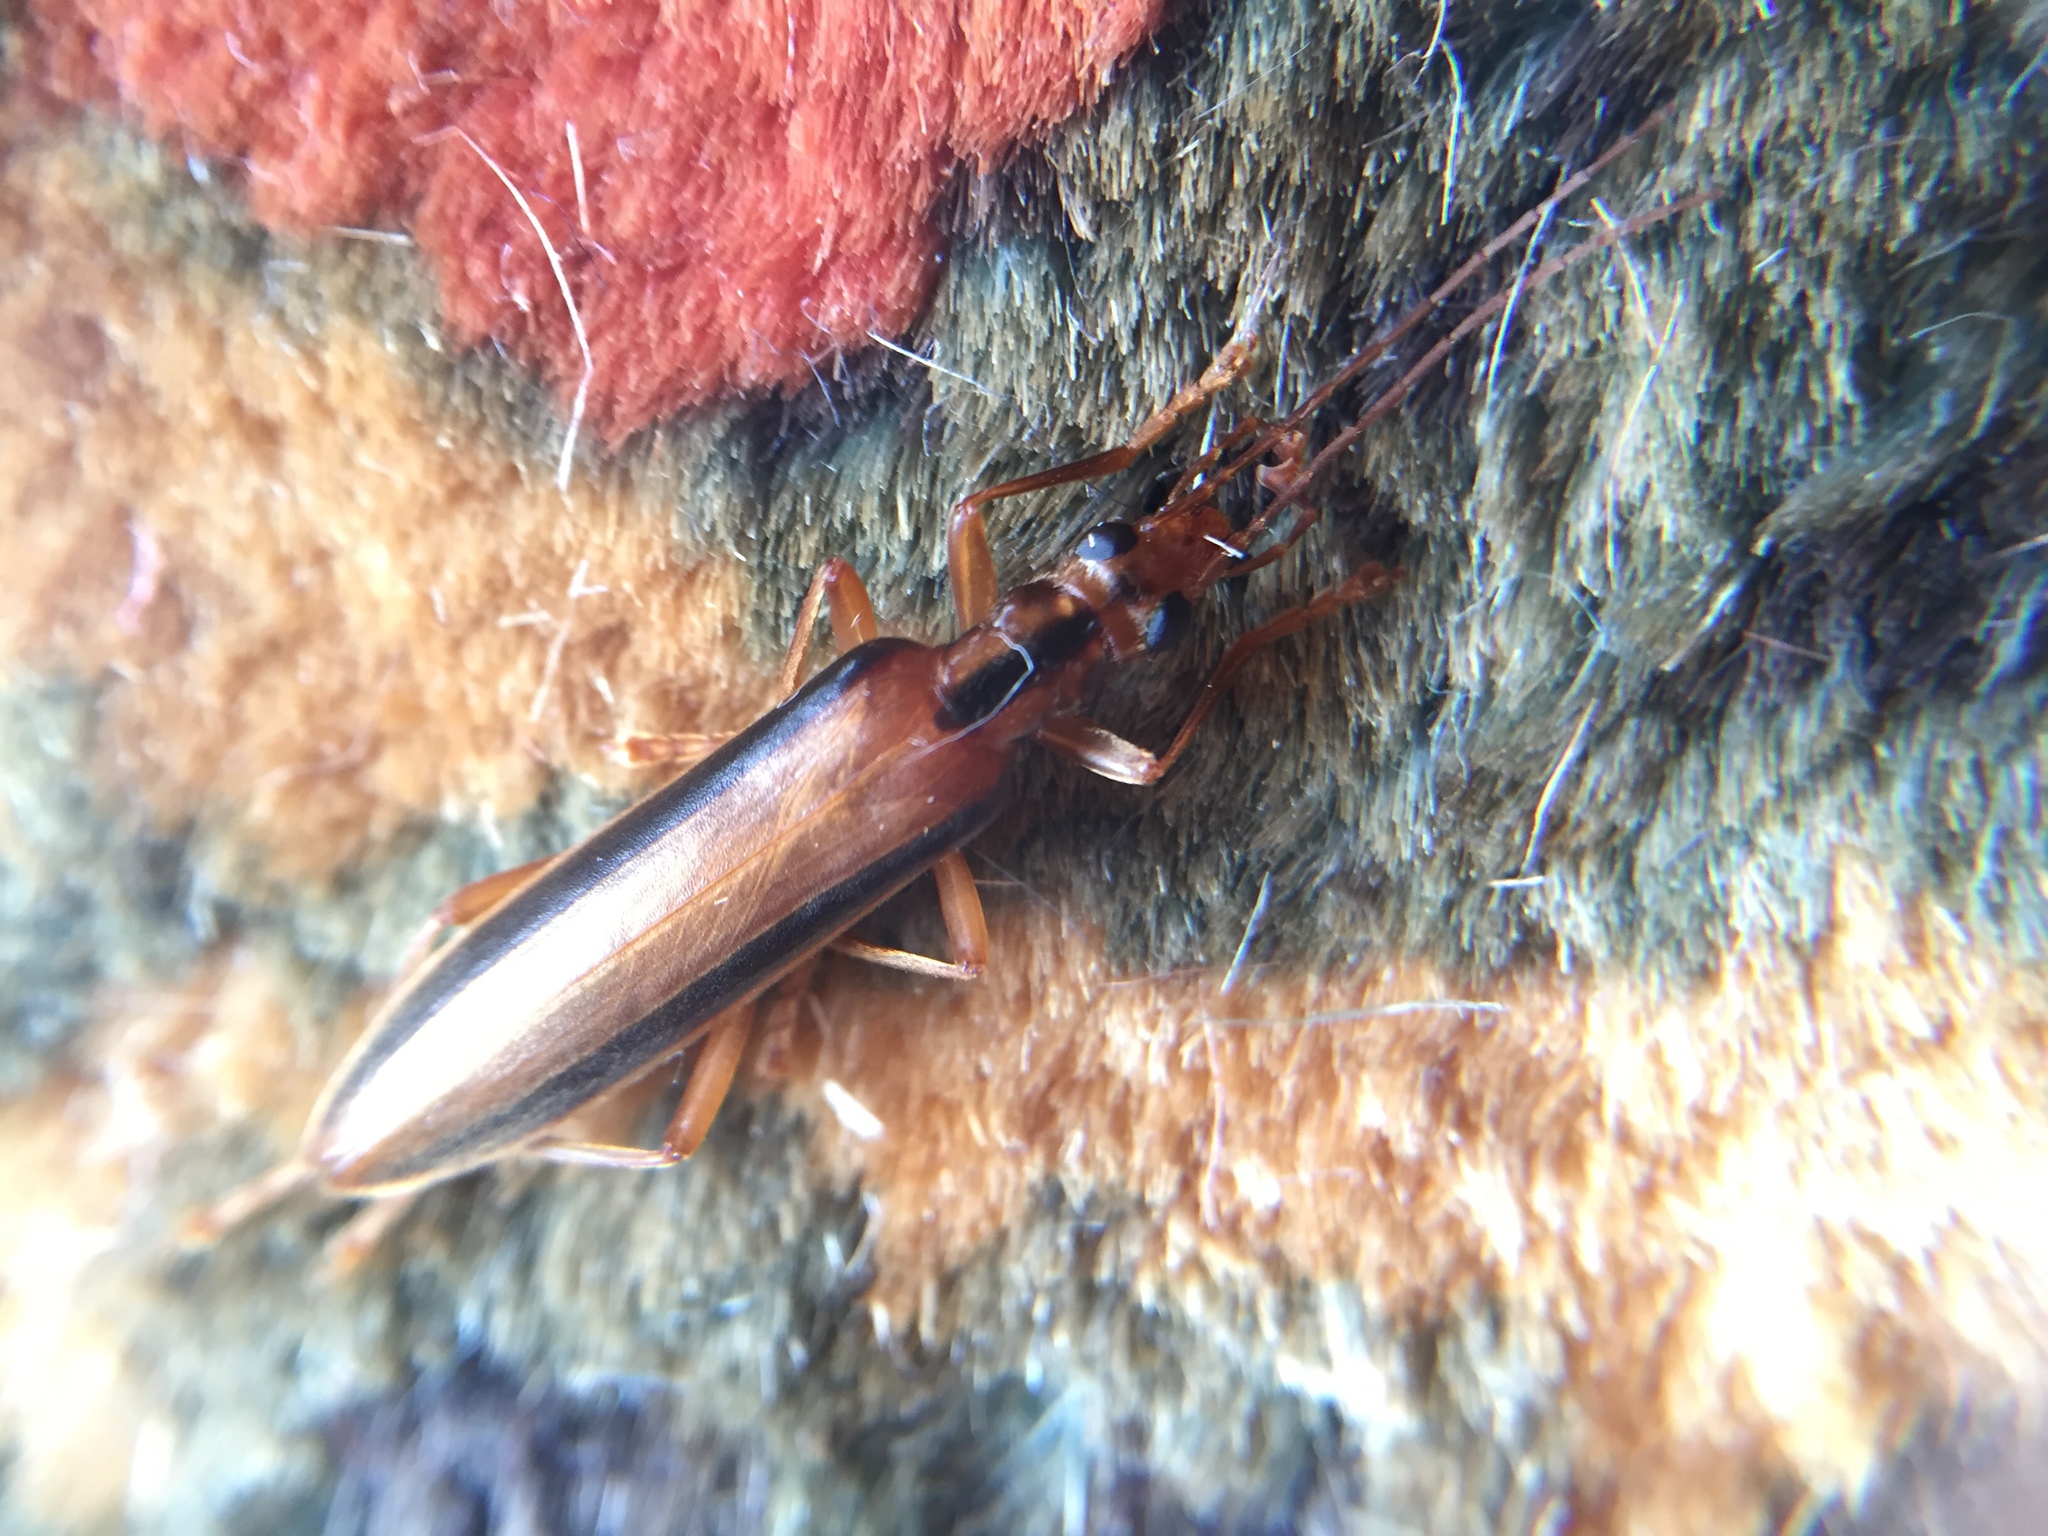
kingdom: Animalia
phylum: Arthropoda
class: Insecta
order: Coleoptera
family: Oedemeridae
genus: Thelyphassa
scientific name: Thelyphassa
